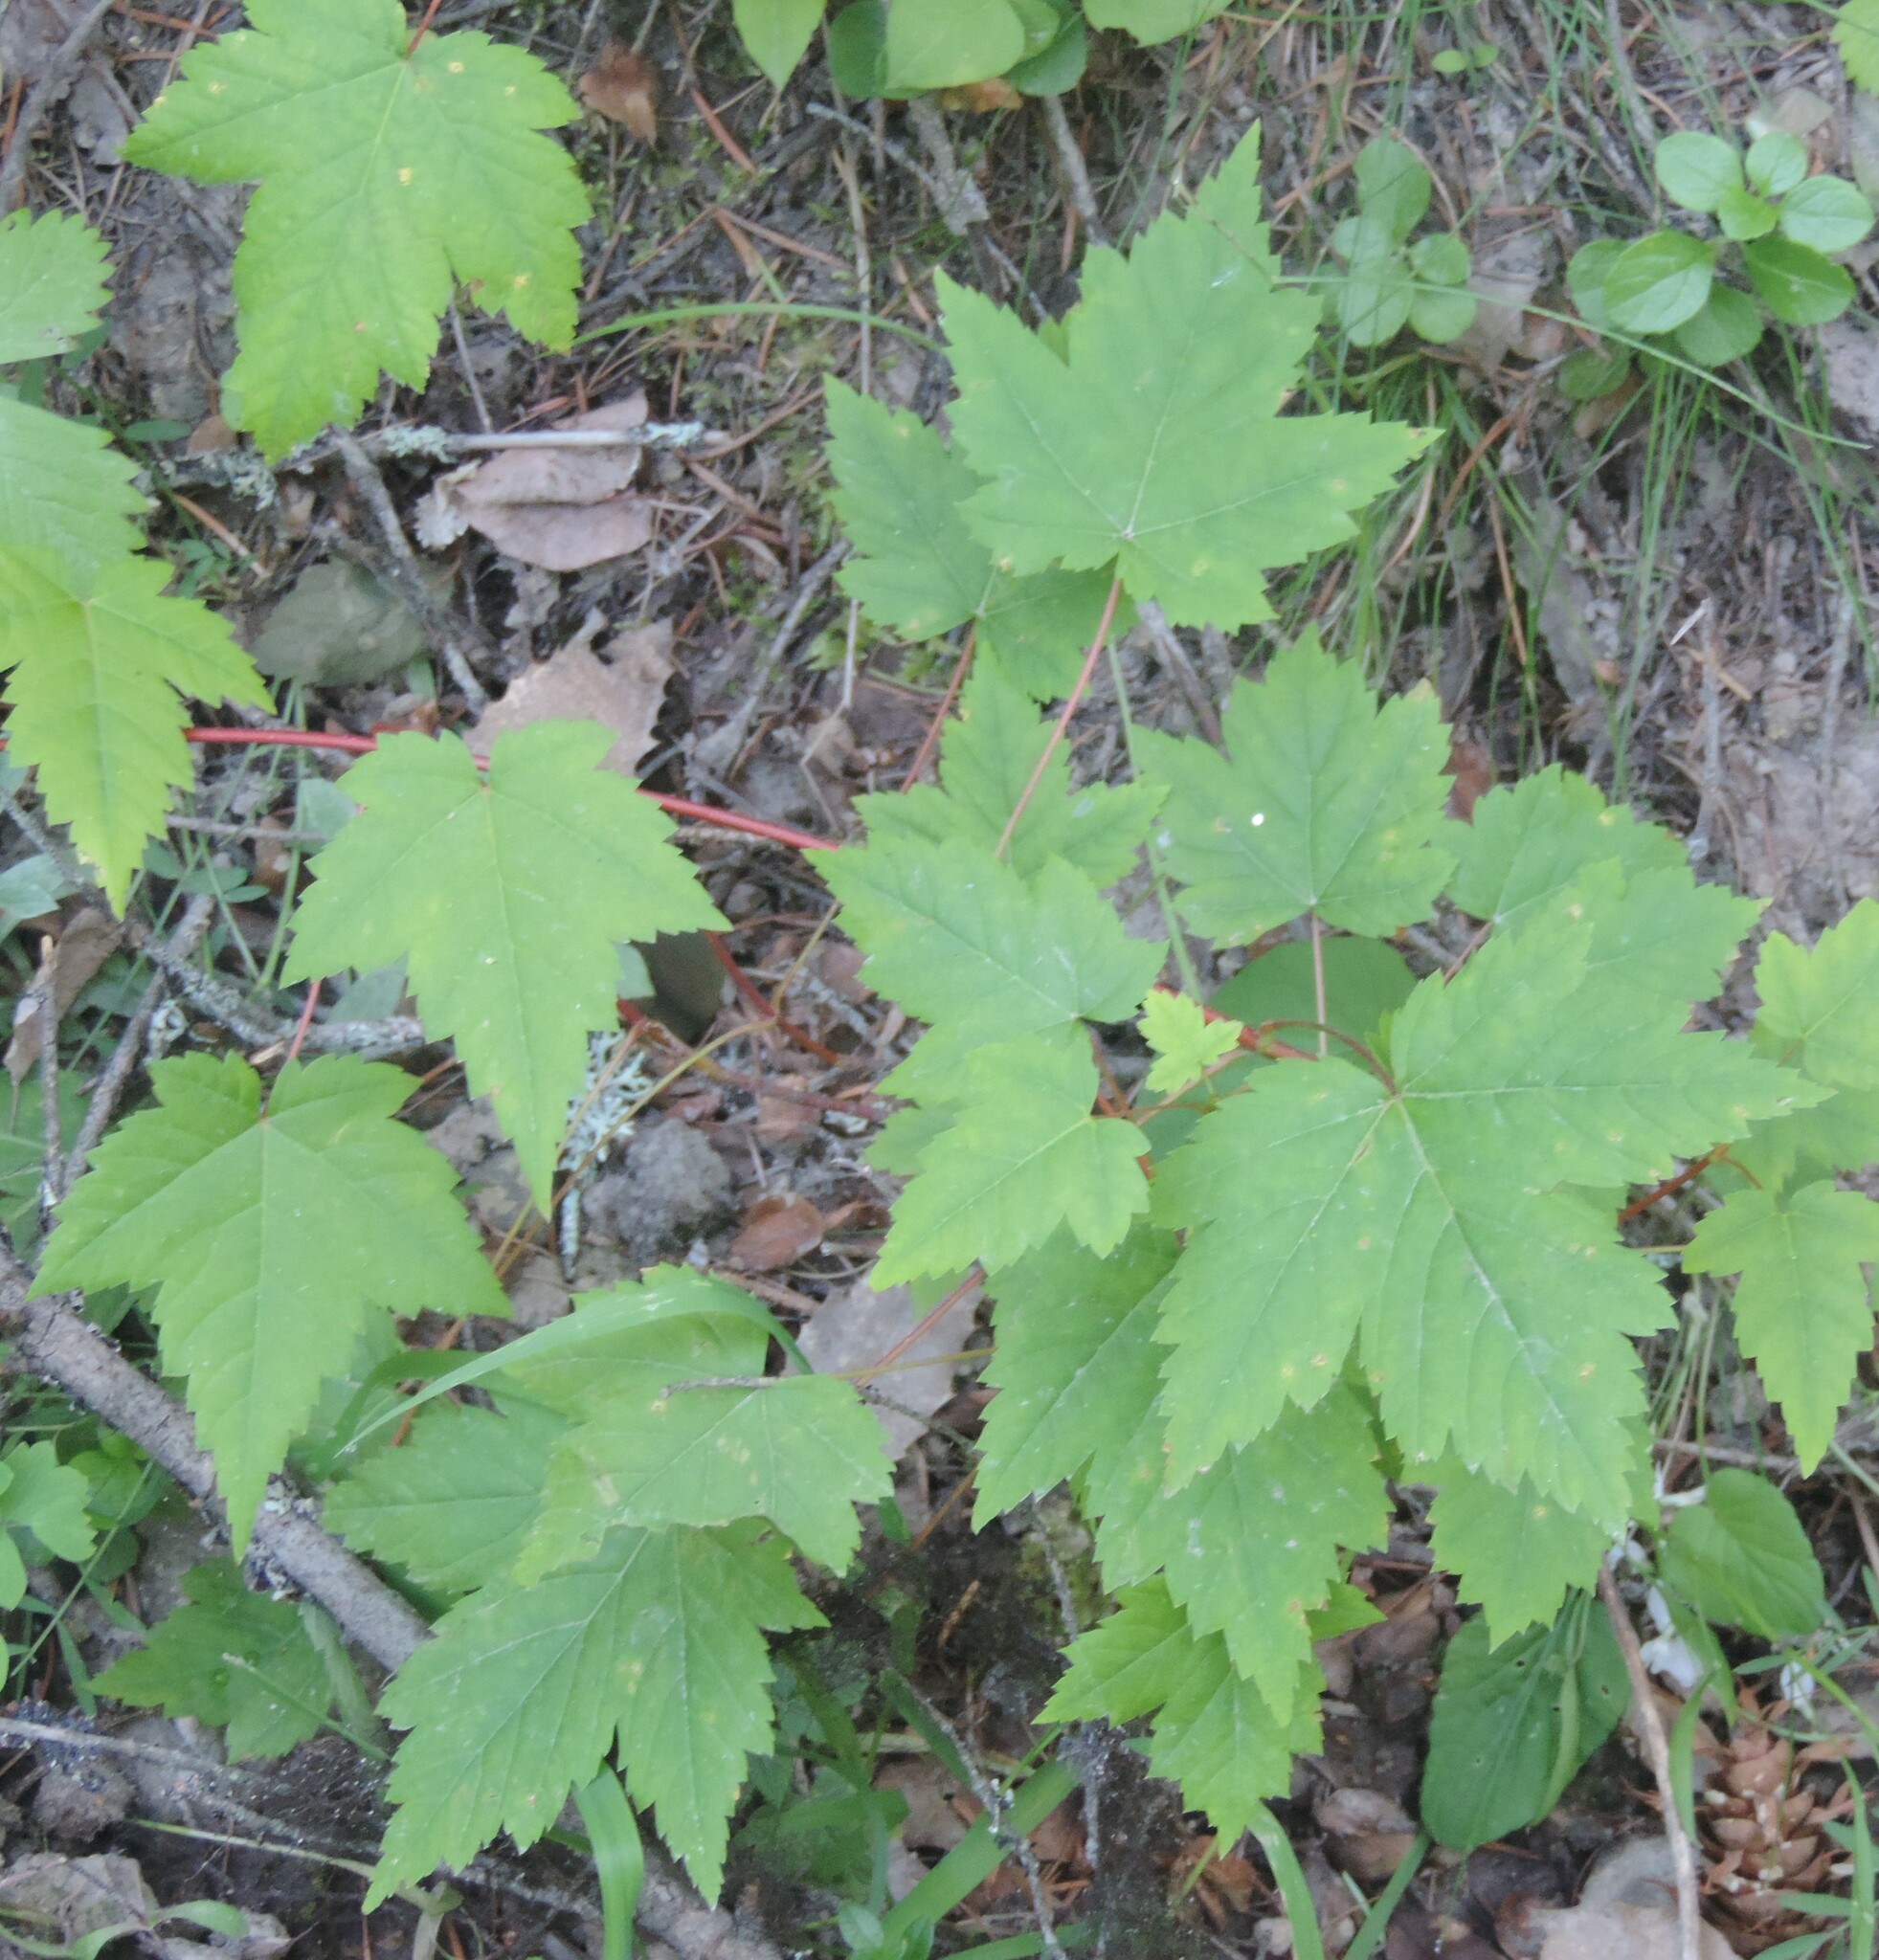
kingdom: Plantae
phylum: Tracheophyta
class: Magnoliopsida
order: Sapindales
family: Sapindaceae
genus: Acer
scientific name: Acer glabrum
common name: Rocky mountain maple
